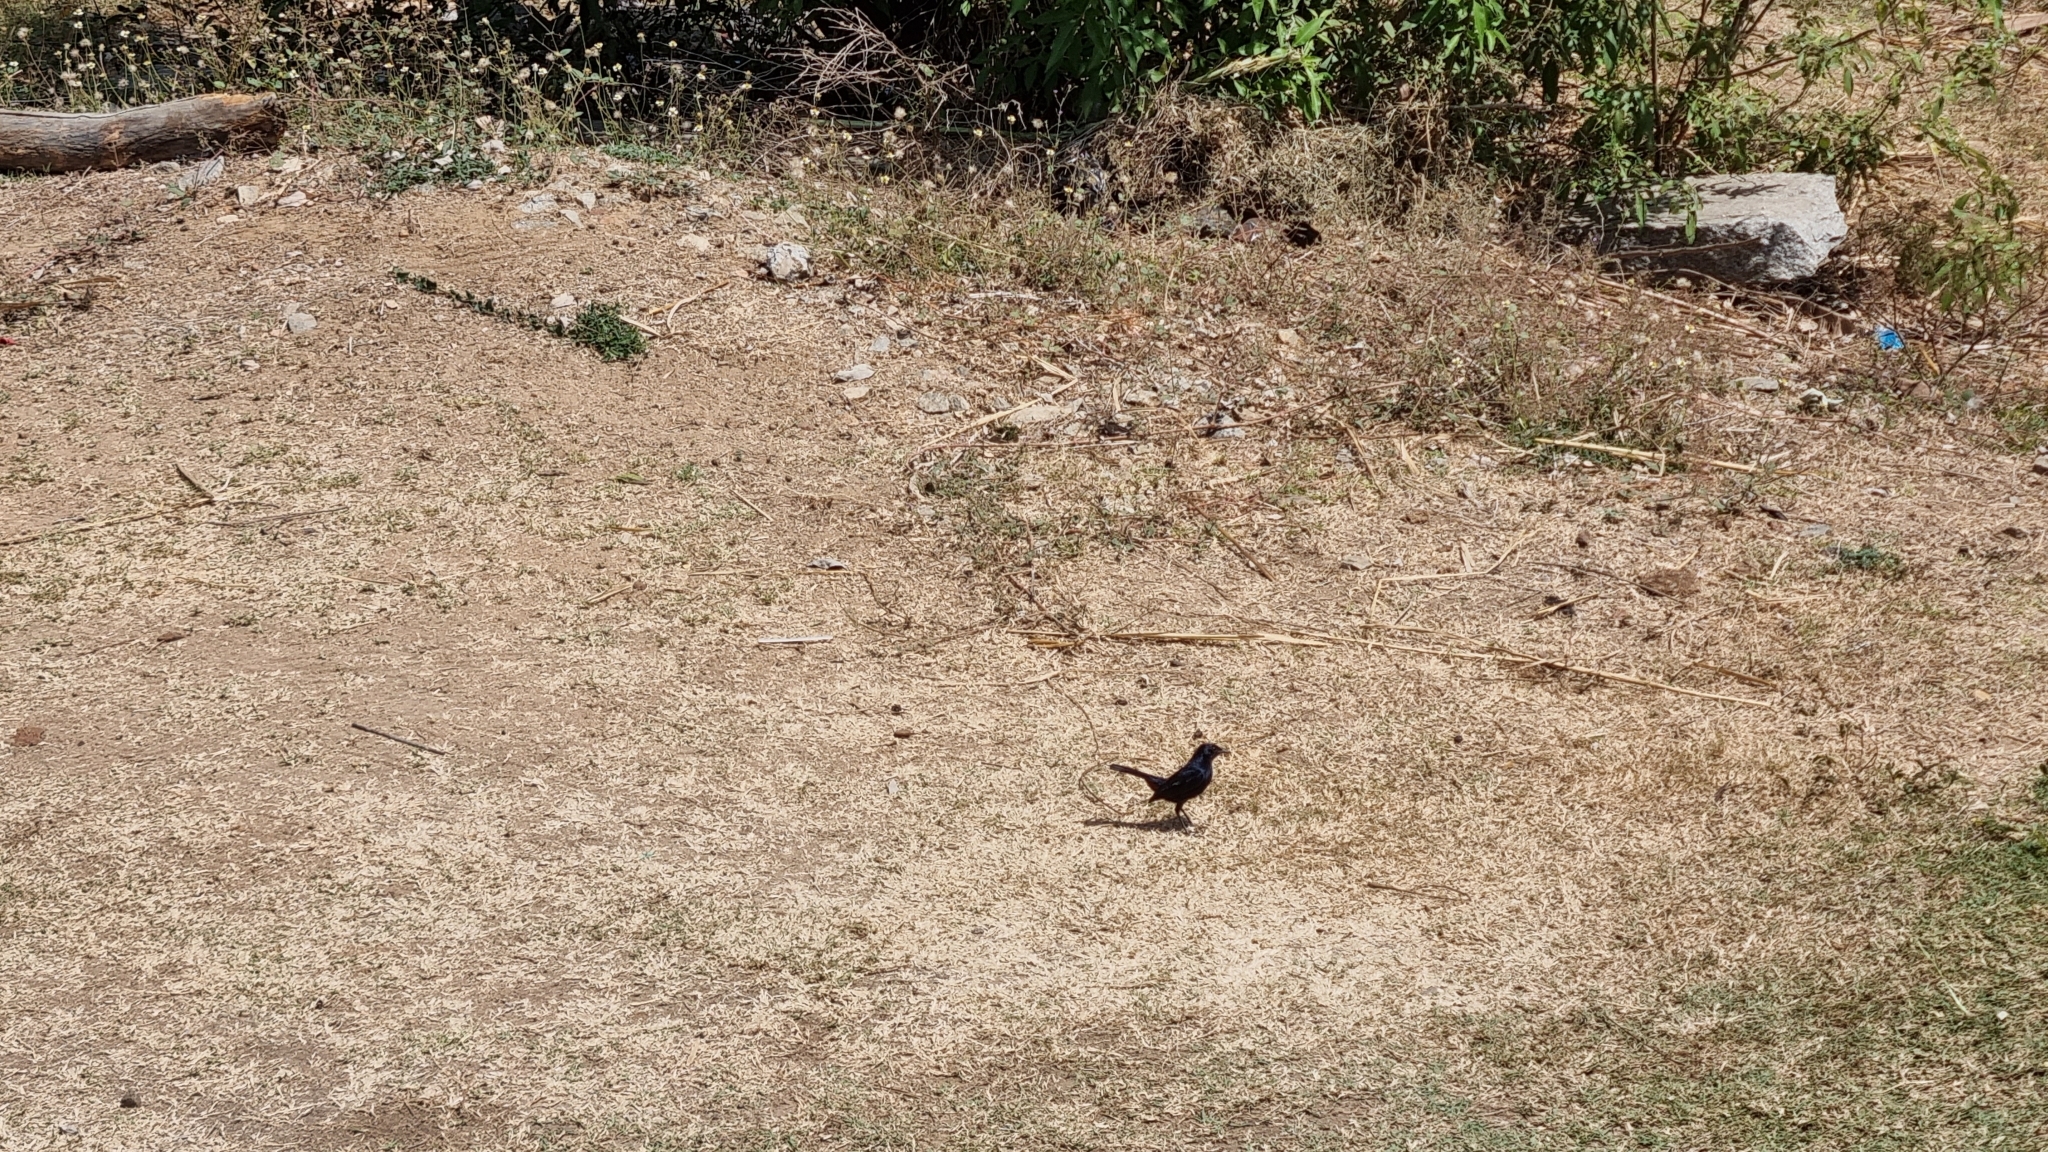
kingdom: Animalia
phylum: Chordata
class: Aves
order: Passeriformes
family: Muscicapidae
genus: Saxicoloides
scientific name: Saxicoloides fulicatus
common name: Indian robin
